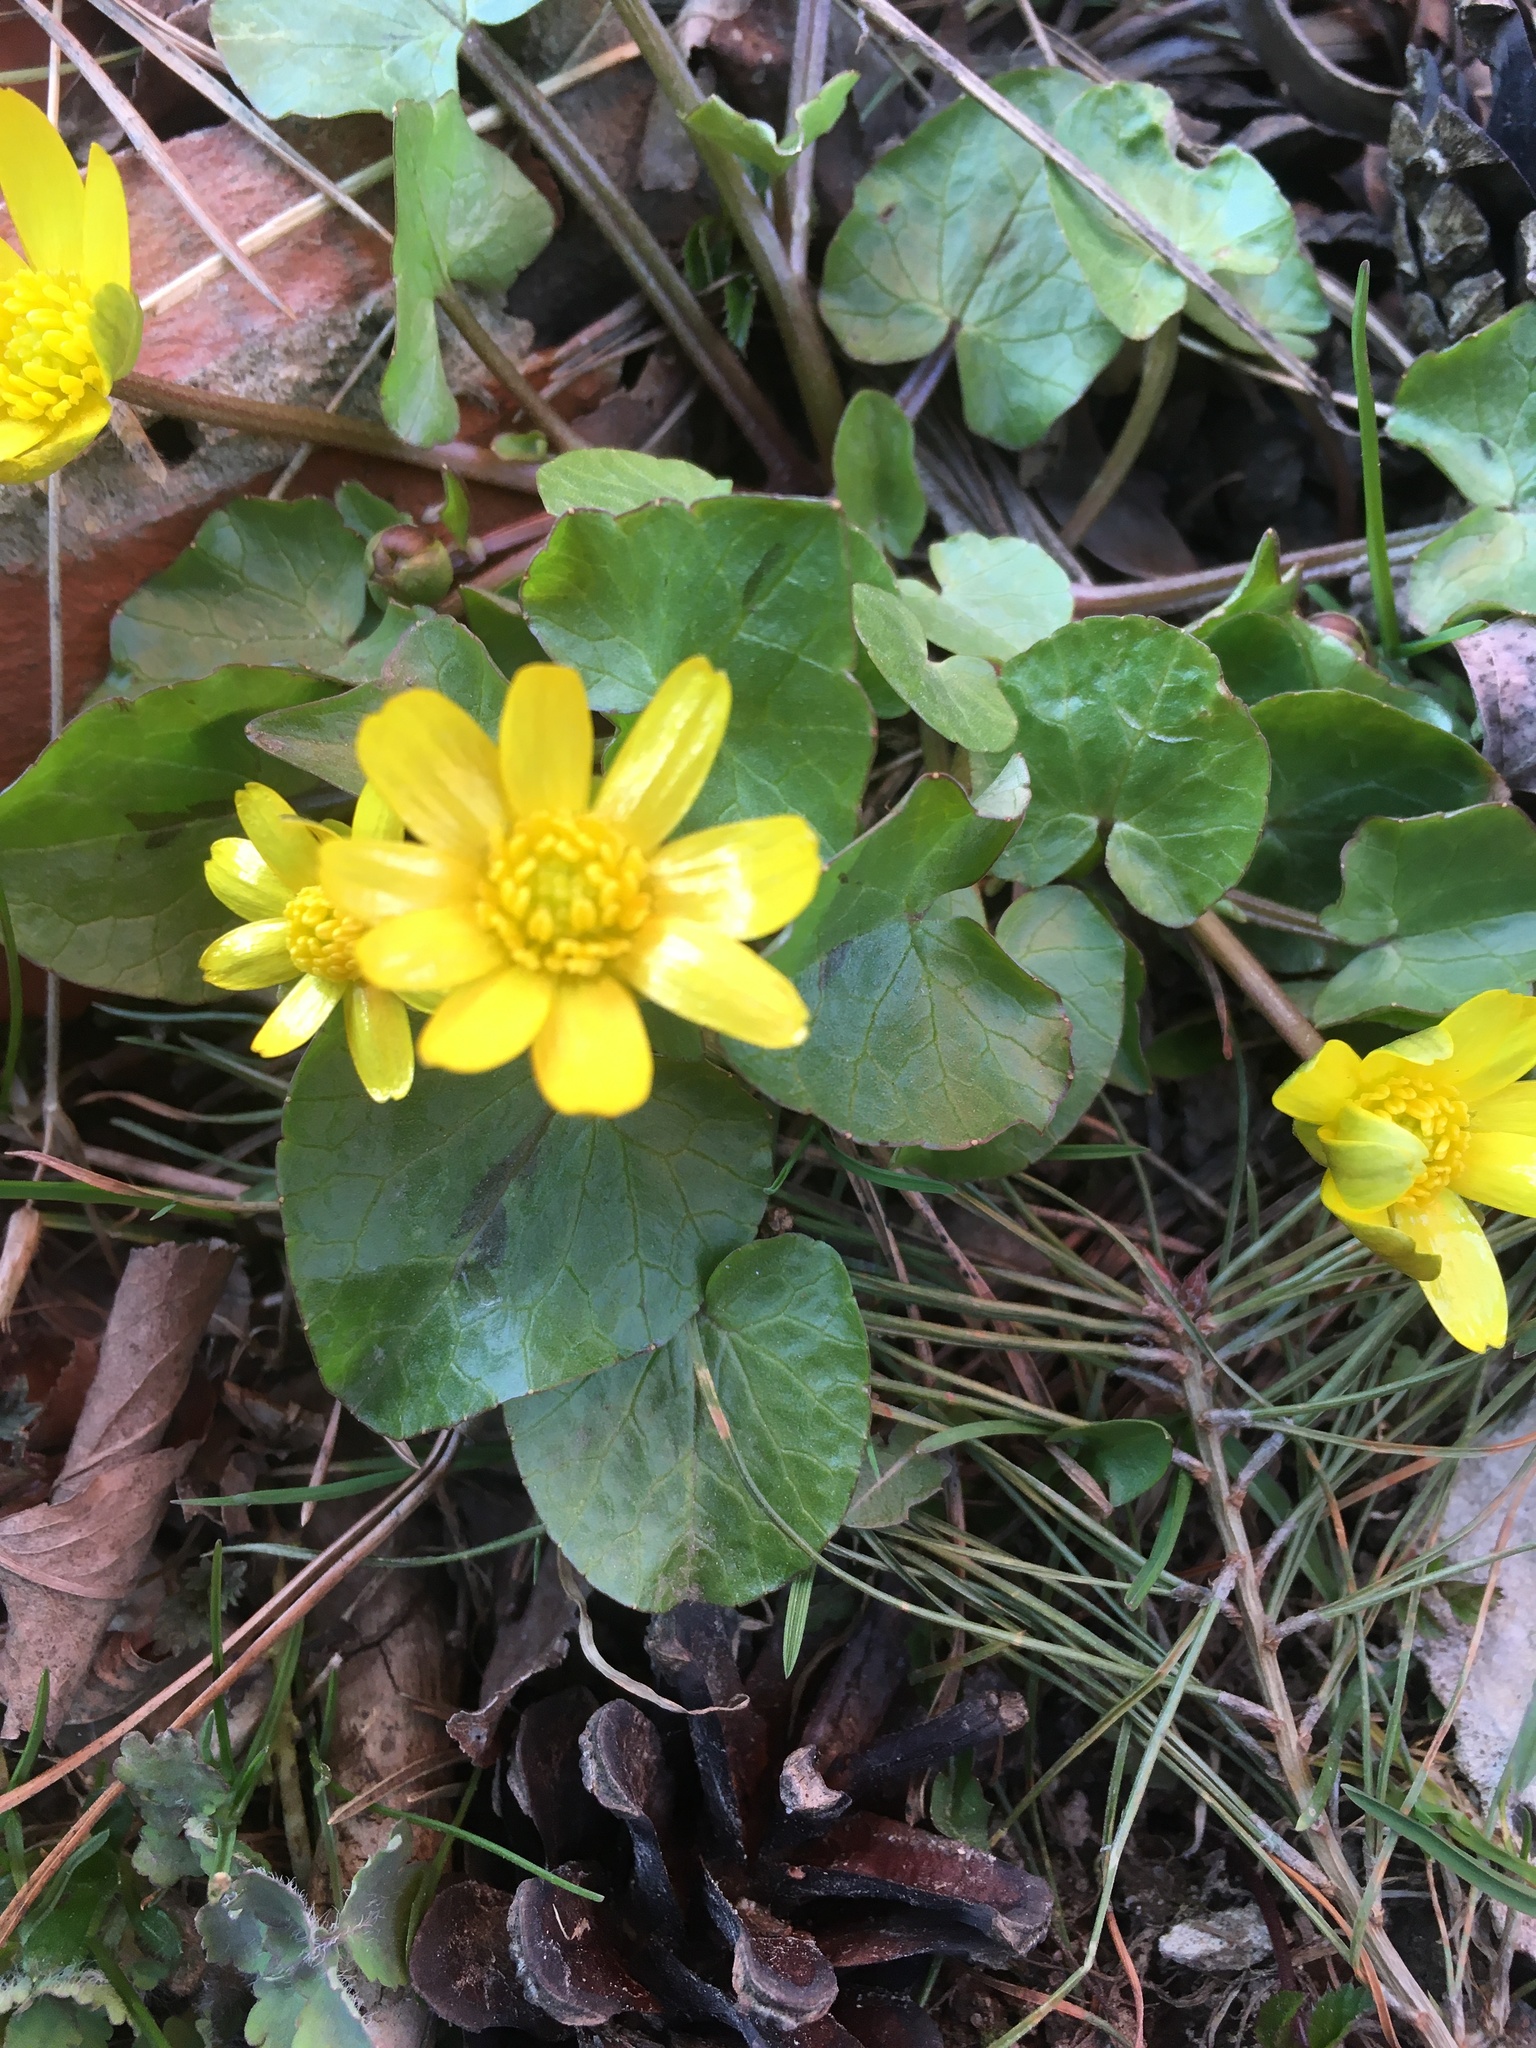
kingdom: Plantae
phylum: Tracheophyta
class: Magnoliopsida
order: Ranunculales
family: Ranunculaceae
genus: Ficaria
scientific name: Ficaria verna
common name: Lesser celandine
